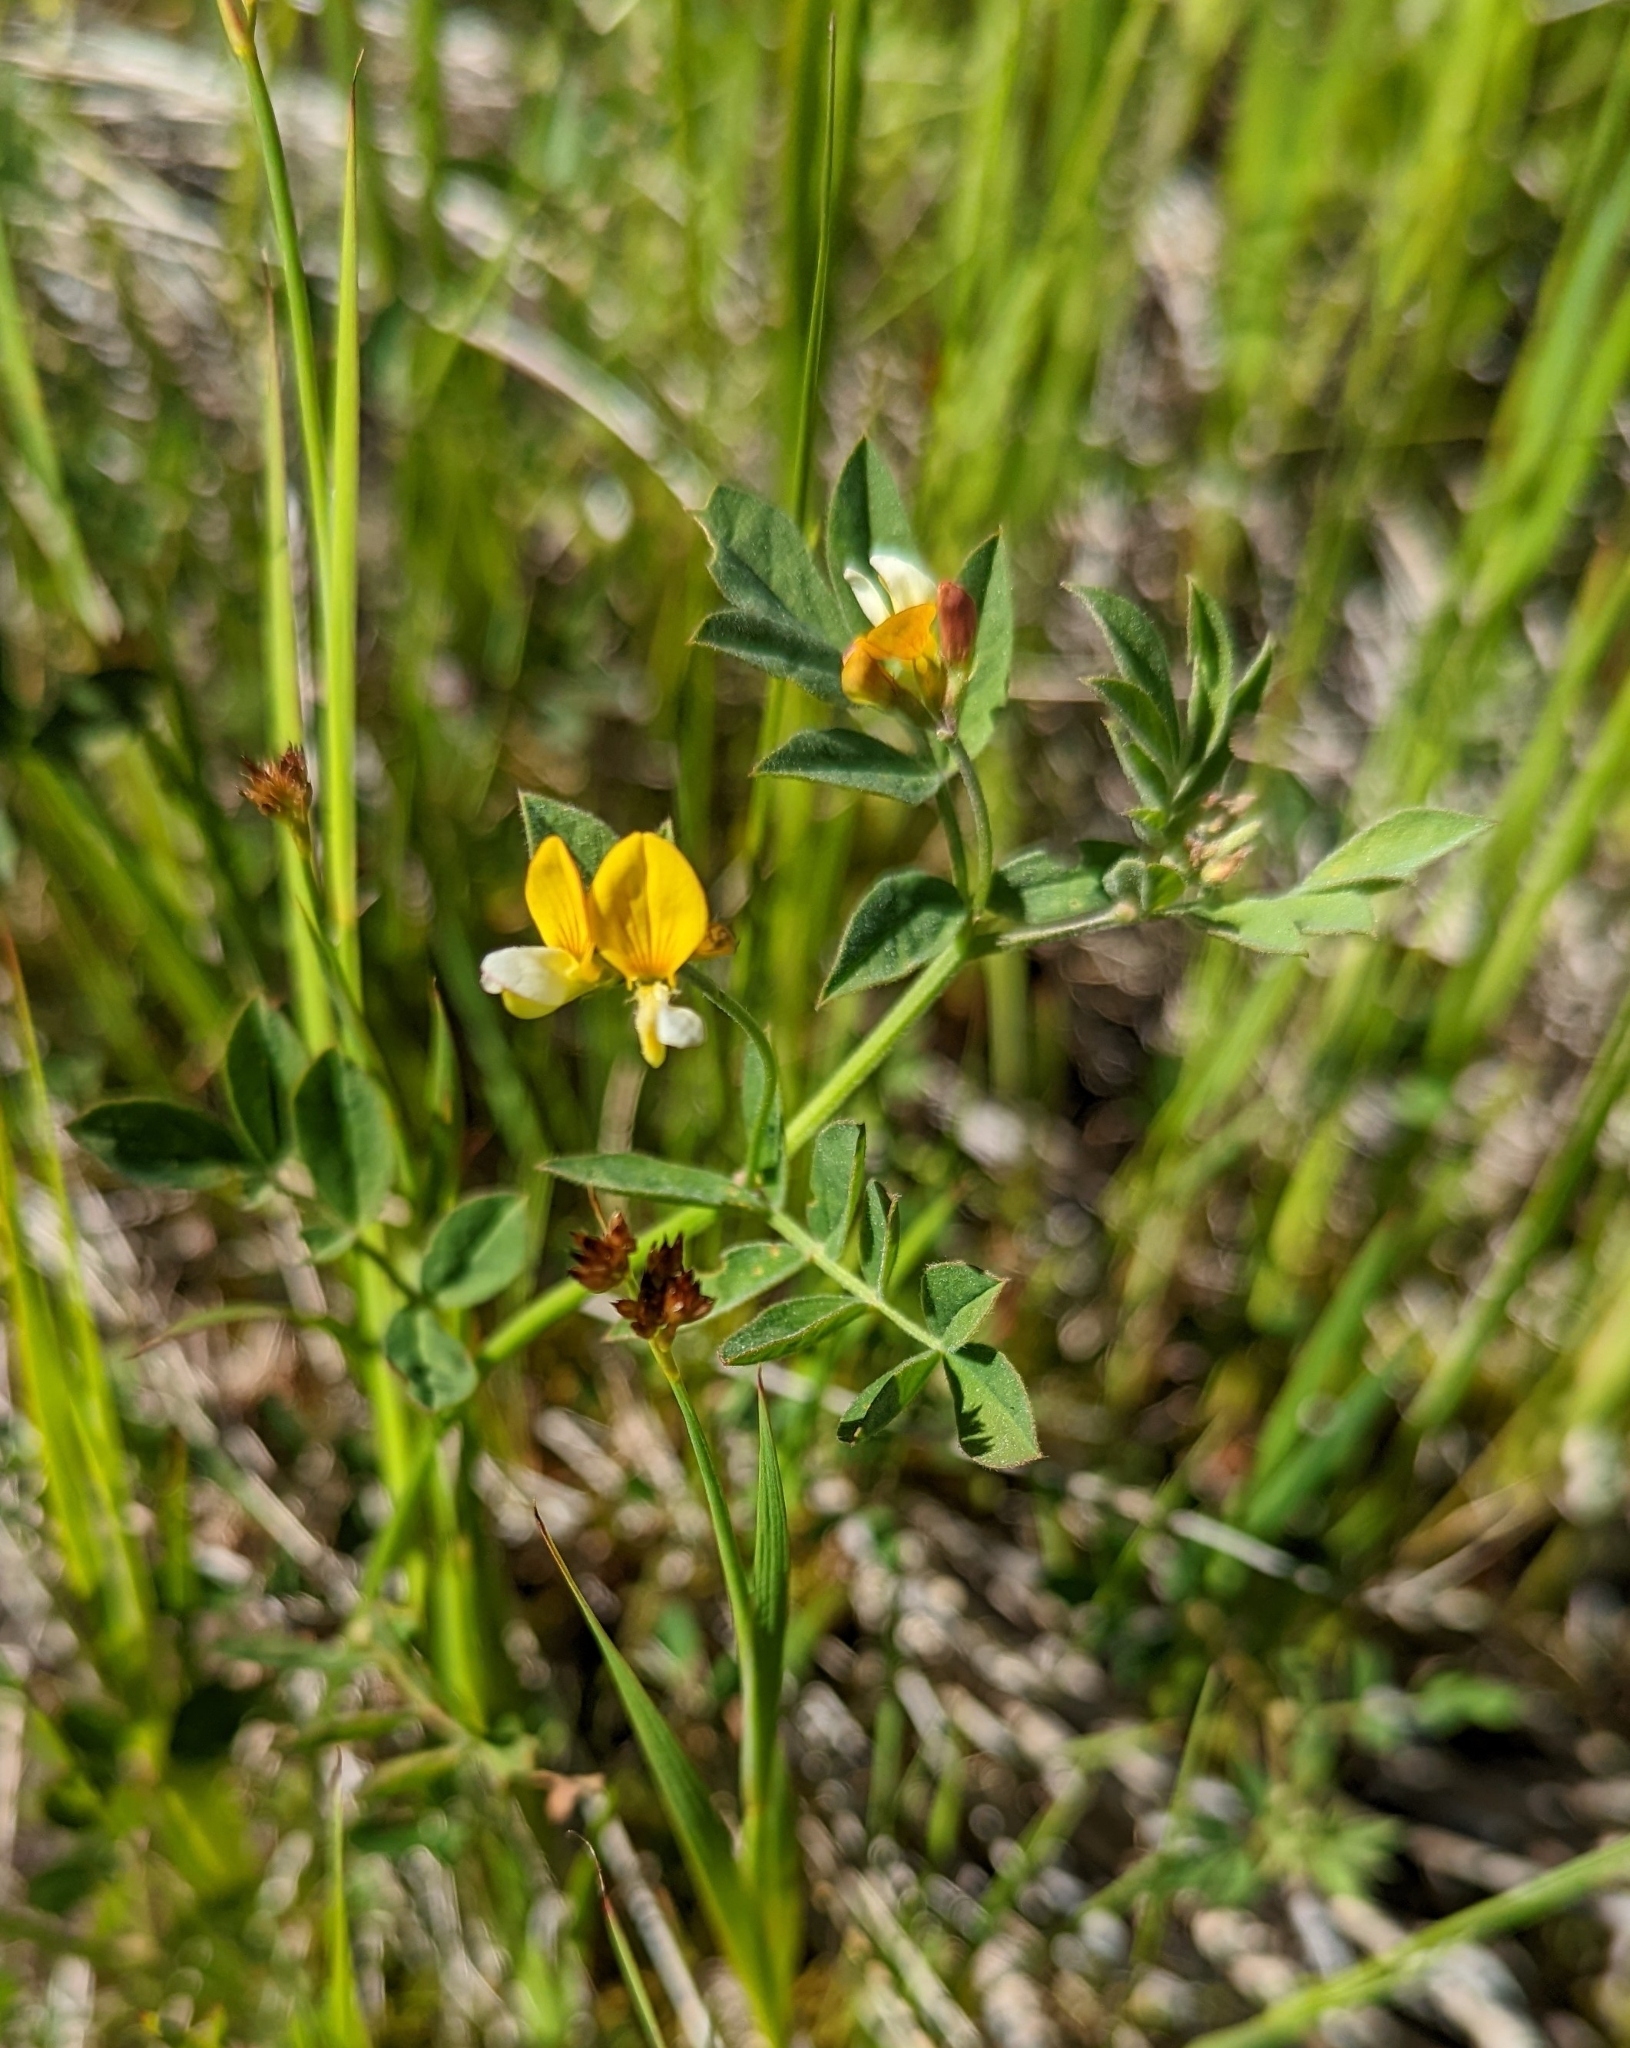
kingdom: Plantae
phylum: Tracheophyta
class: Magnoliopsida
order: Fabales
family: Fabaceae
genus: Hosackia
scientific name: Hosackia oblongifolia
